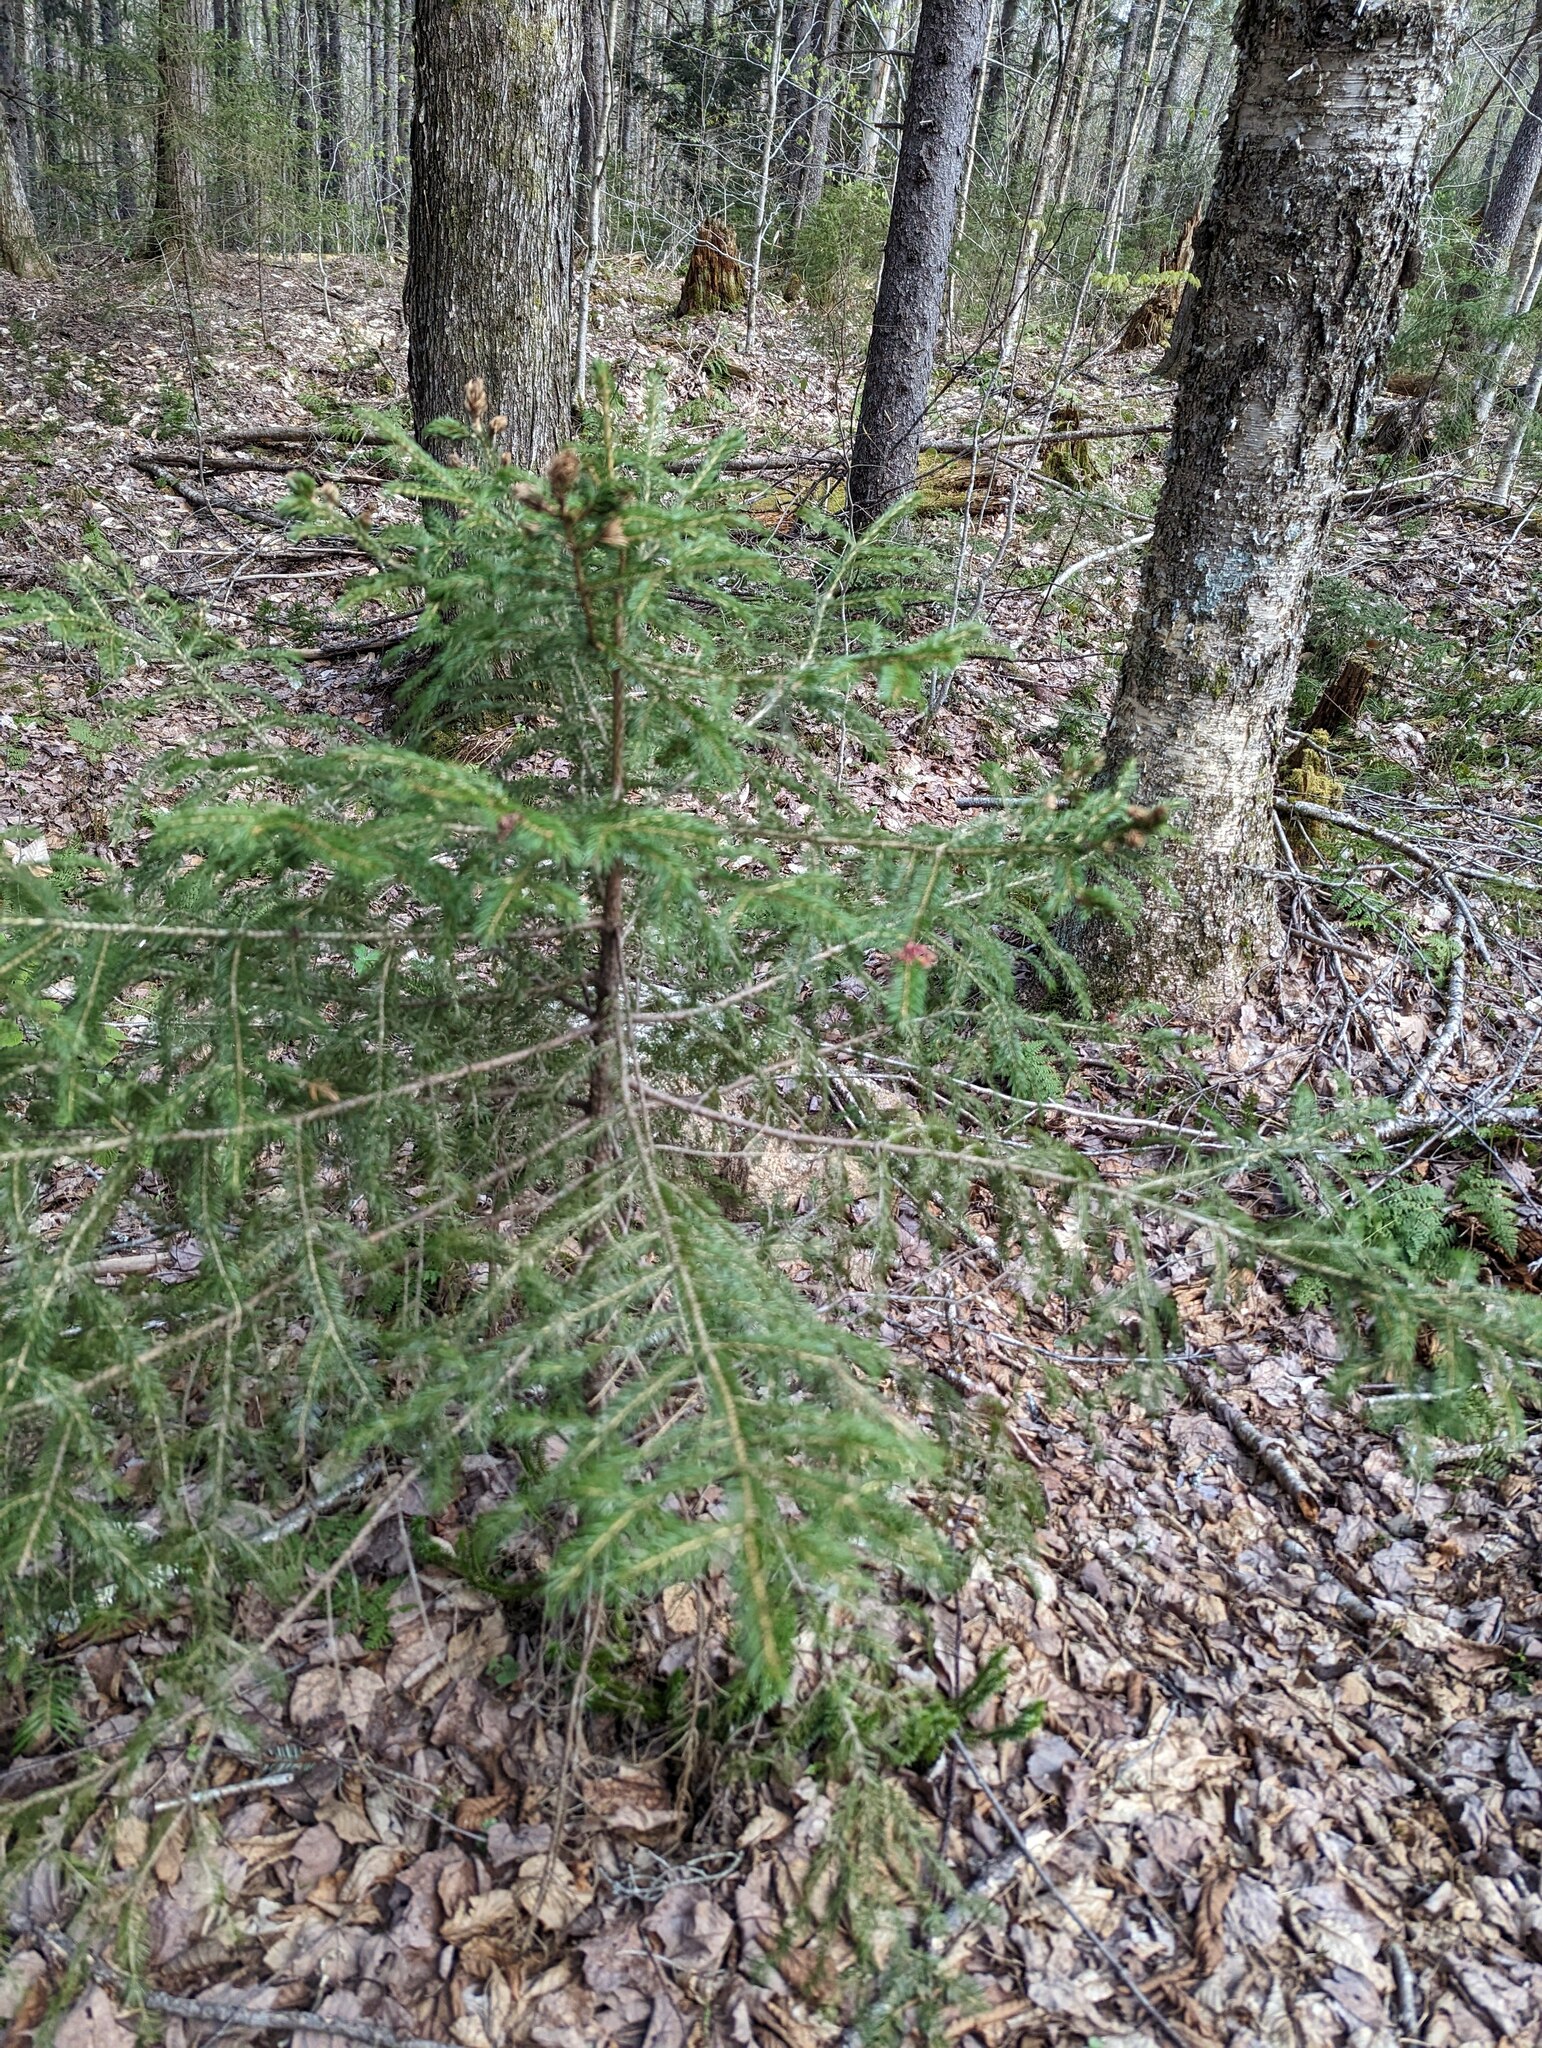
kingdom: Plantae
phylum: Tracheophyta
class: Pinopsida
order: Pinales
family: Pinaceae
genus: Picea
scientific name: Picea rubens
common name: Red spruce
